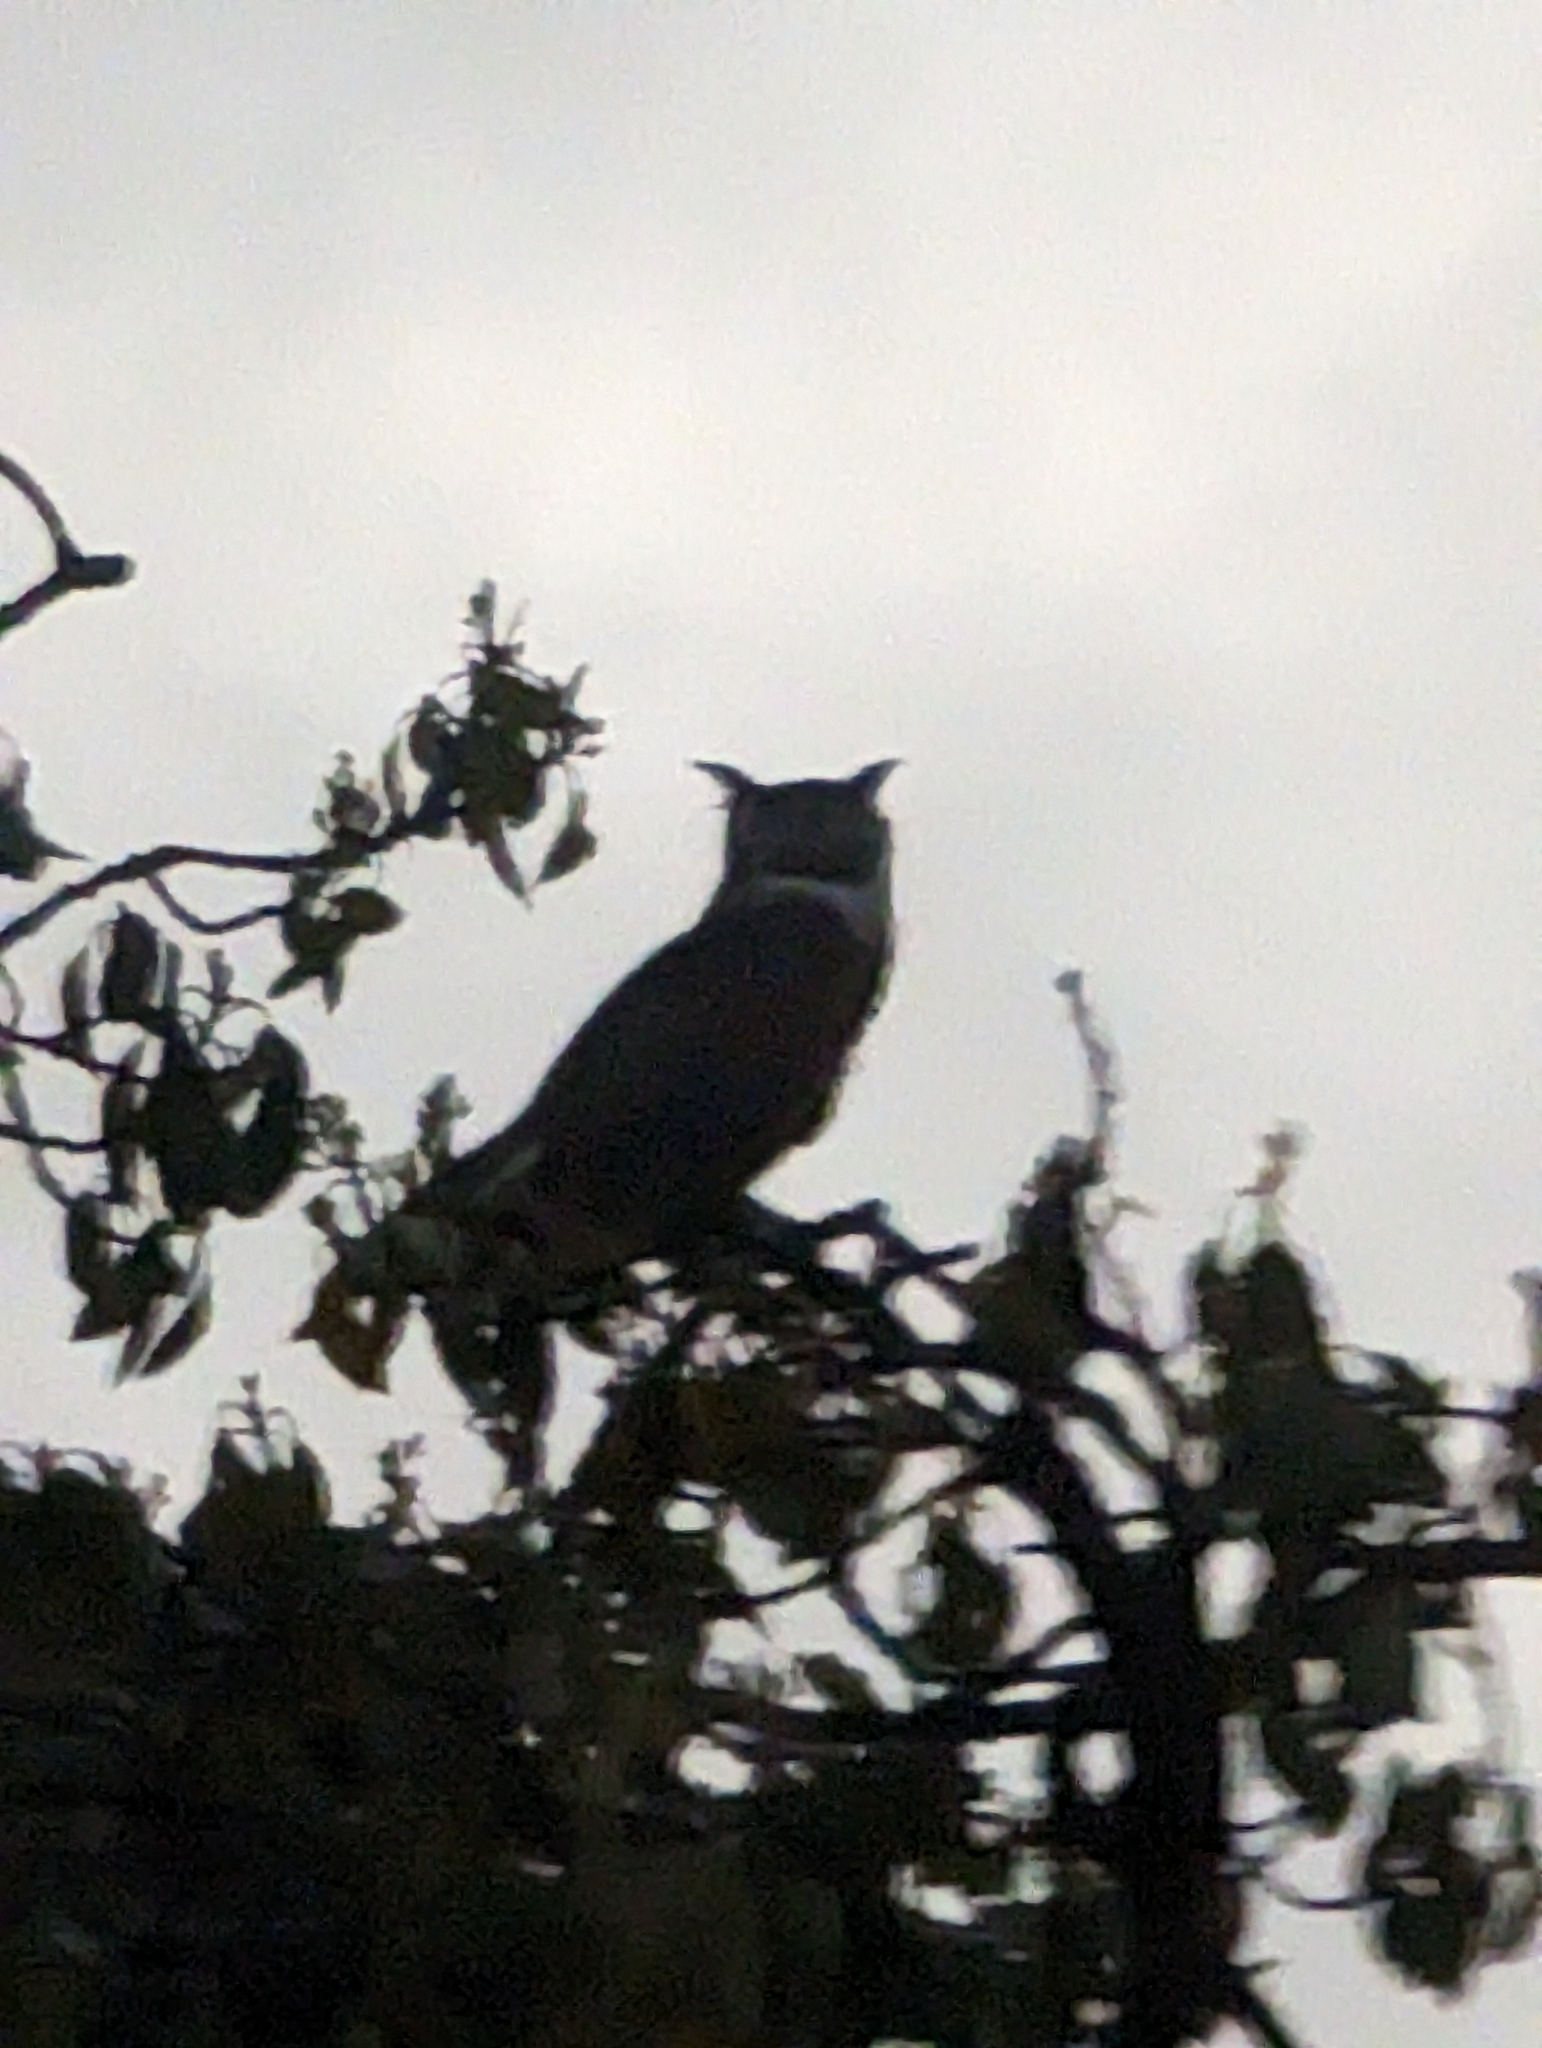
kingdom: Animalia
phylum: Chordata
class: Aves
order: Strigiformes
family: Strigidae
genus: Bubo
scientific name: Bubo virginianus
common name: Great horned owl
